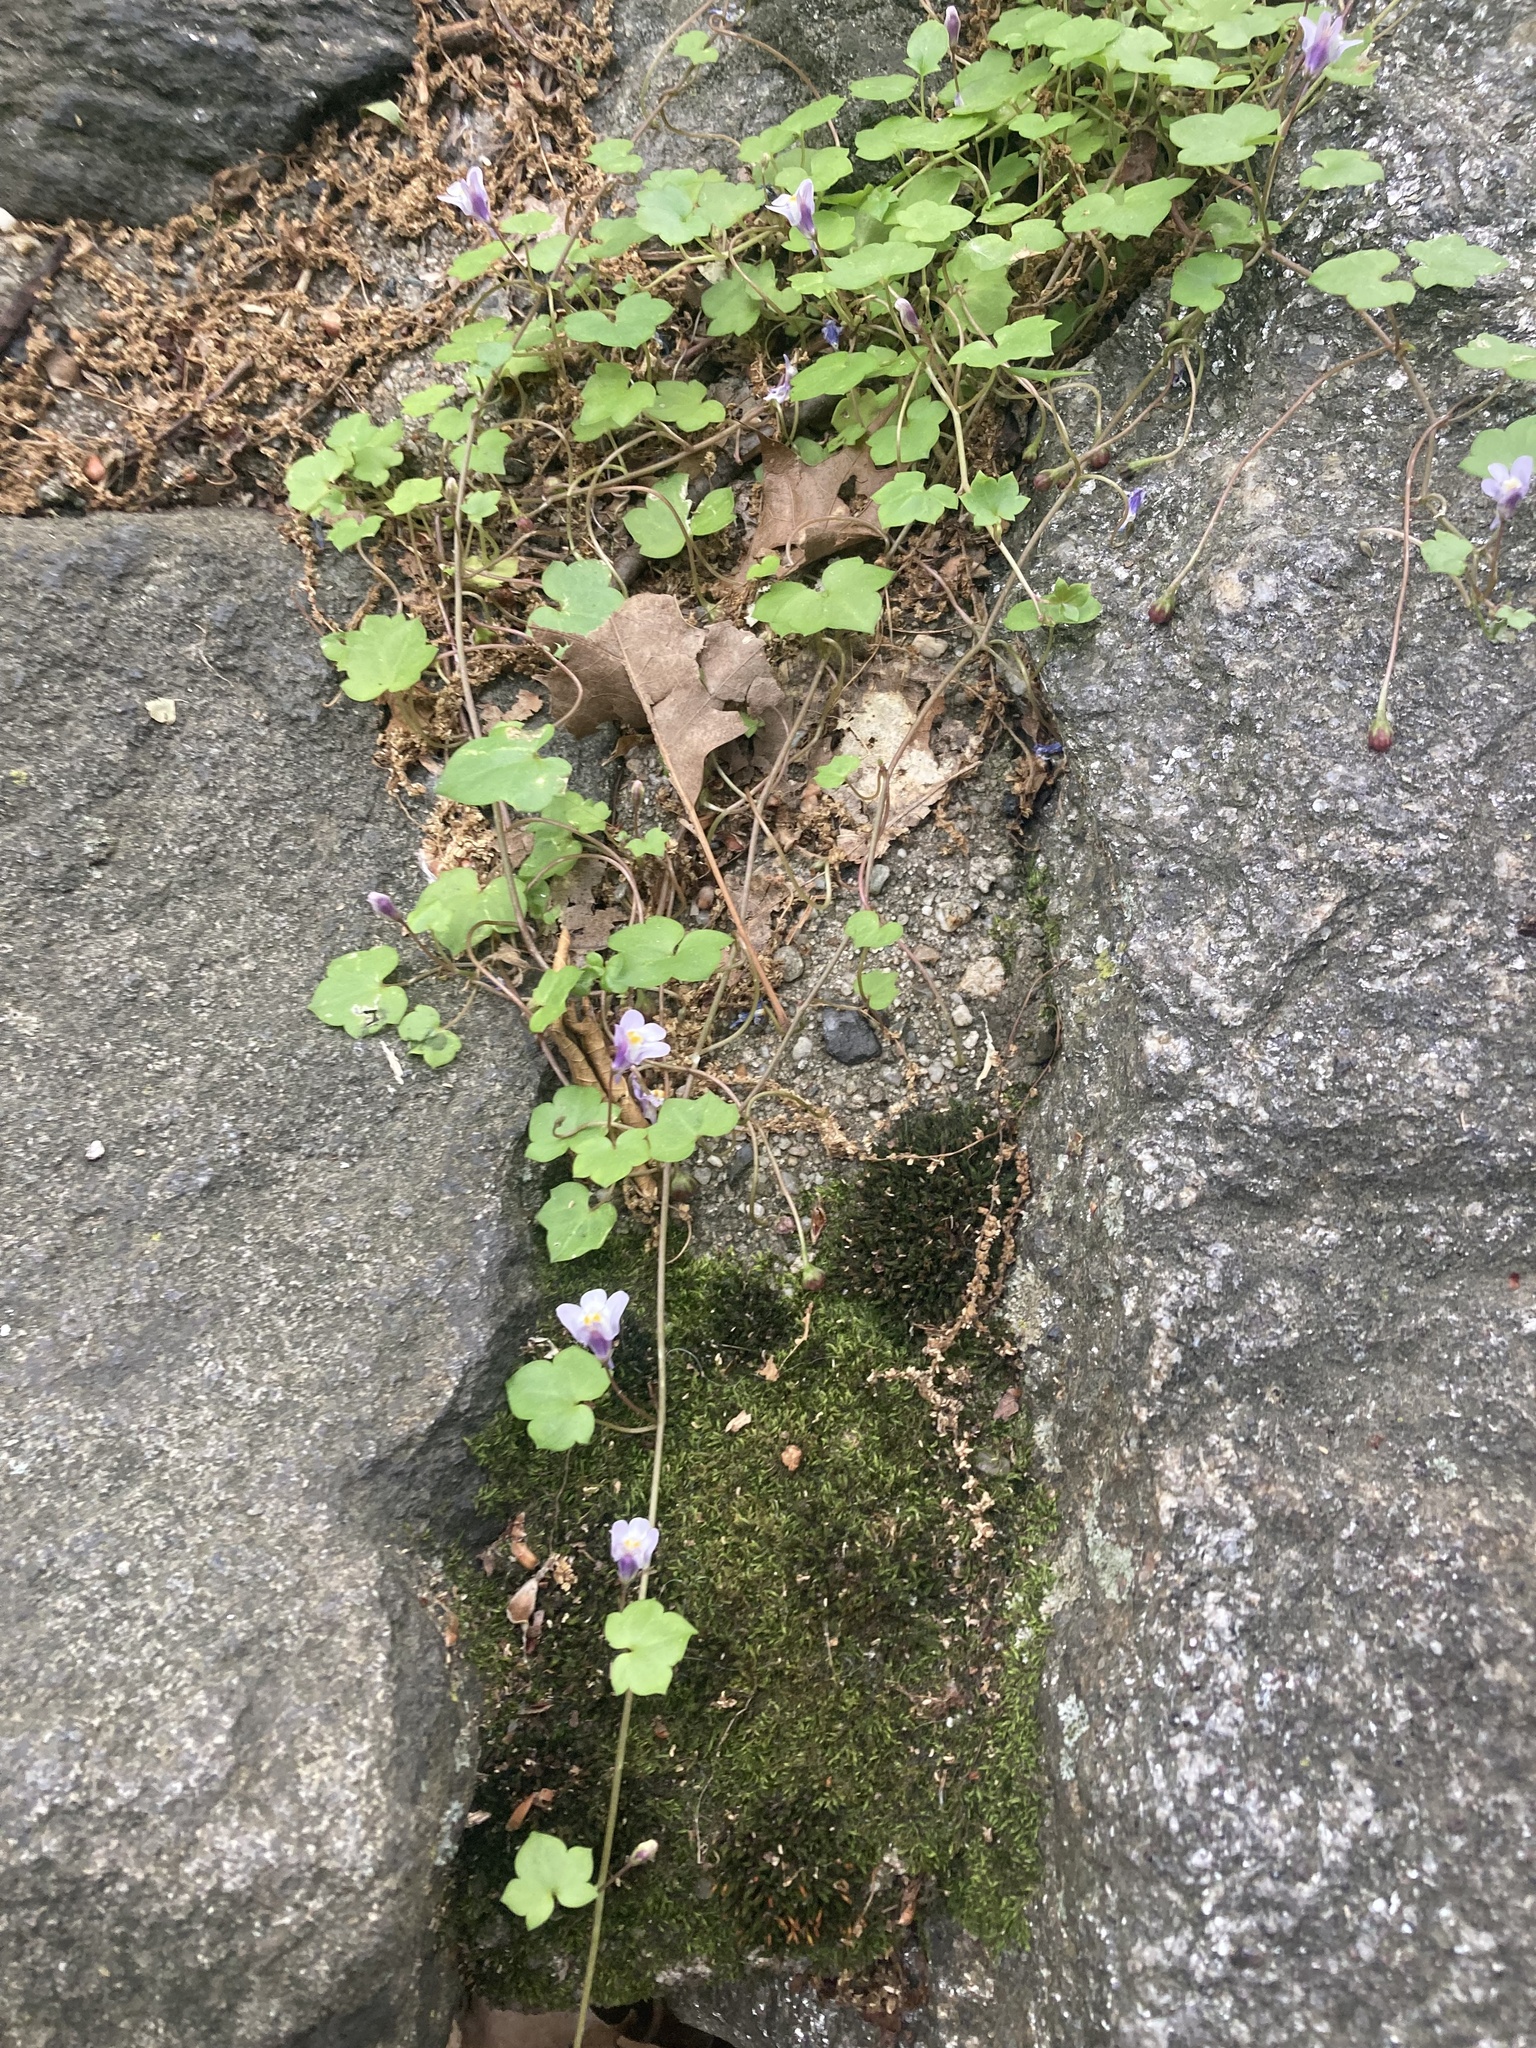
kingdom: Plantae
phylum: Tracheophyta
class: Magnoliopsida
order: Lamiales
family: Plantaginaceae
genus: Cymbalaria
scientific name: Cymbalaria muralis
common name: Ivy-leaved toadflax
